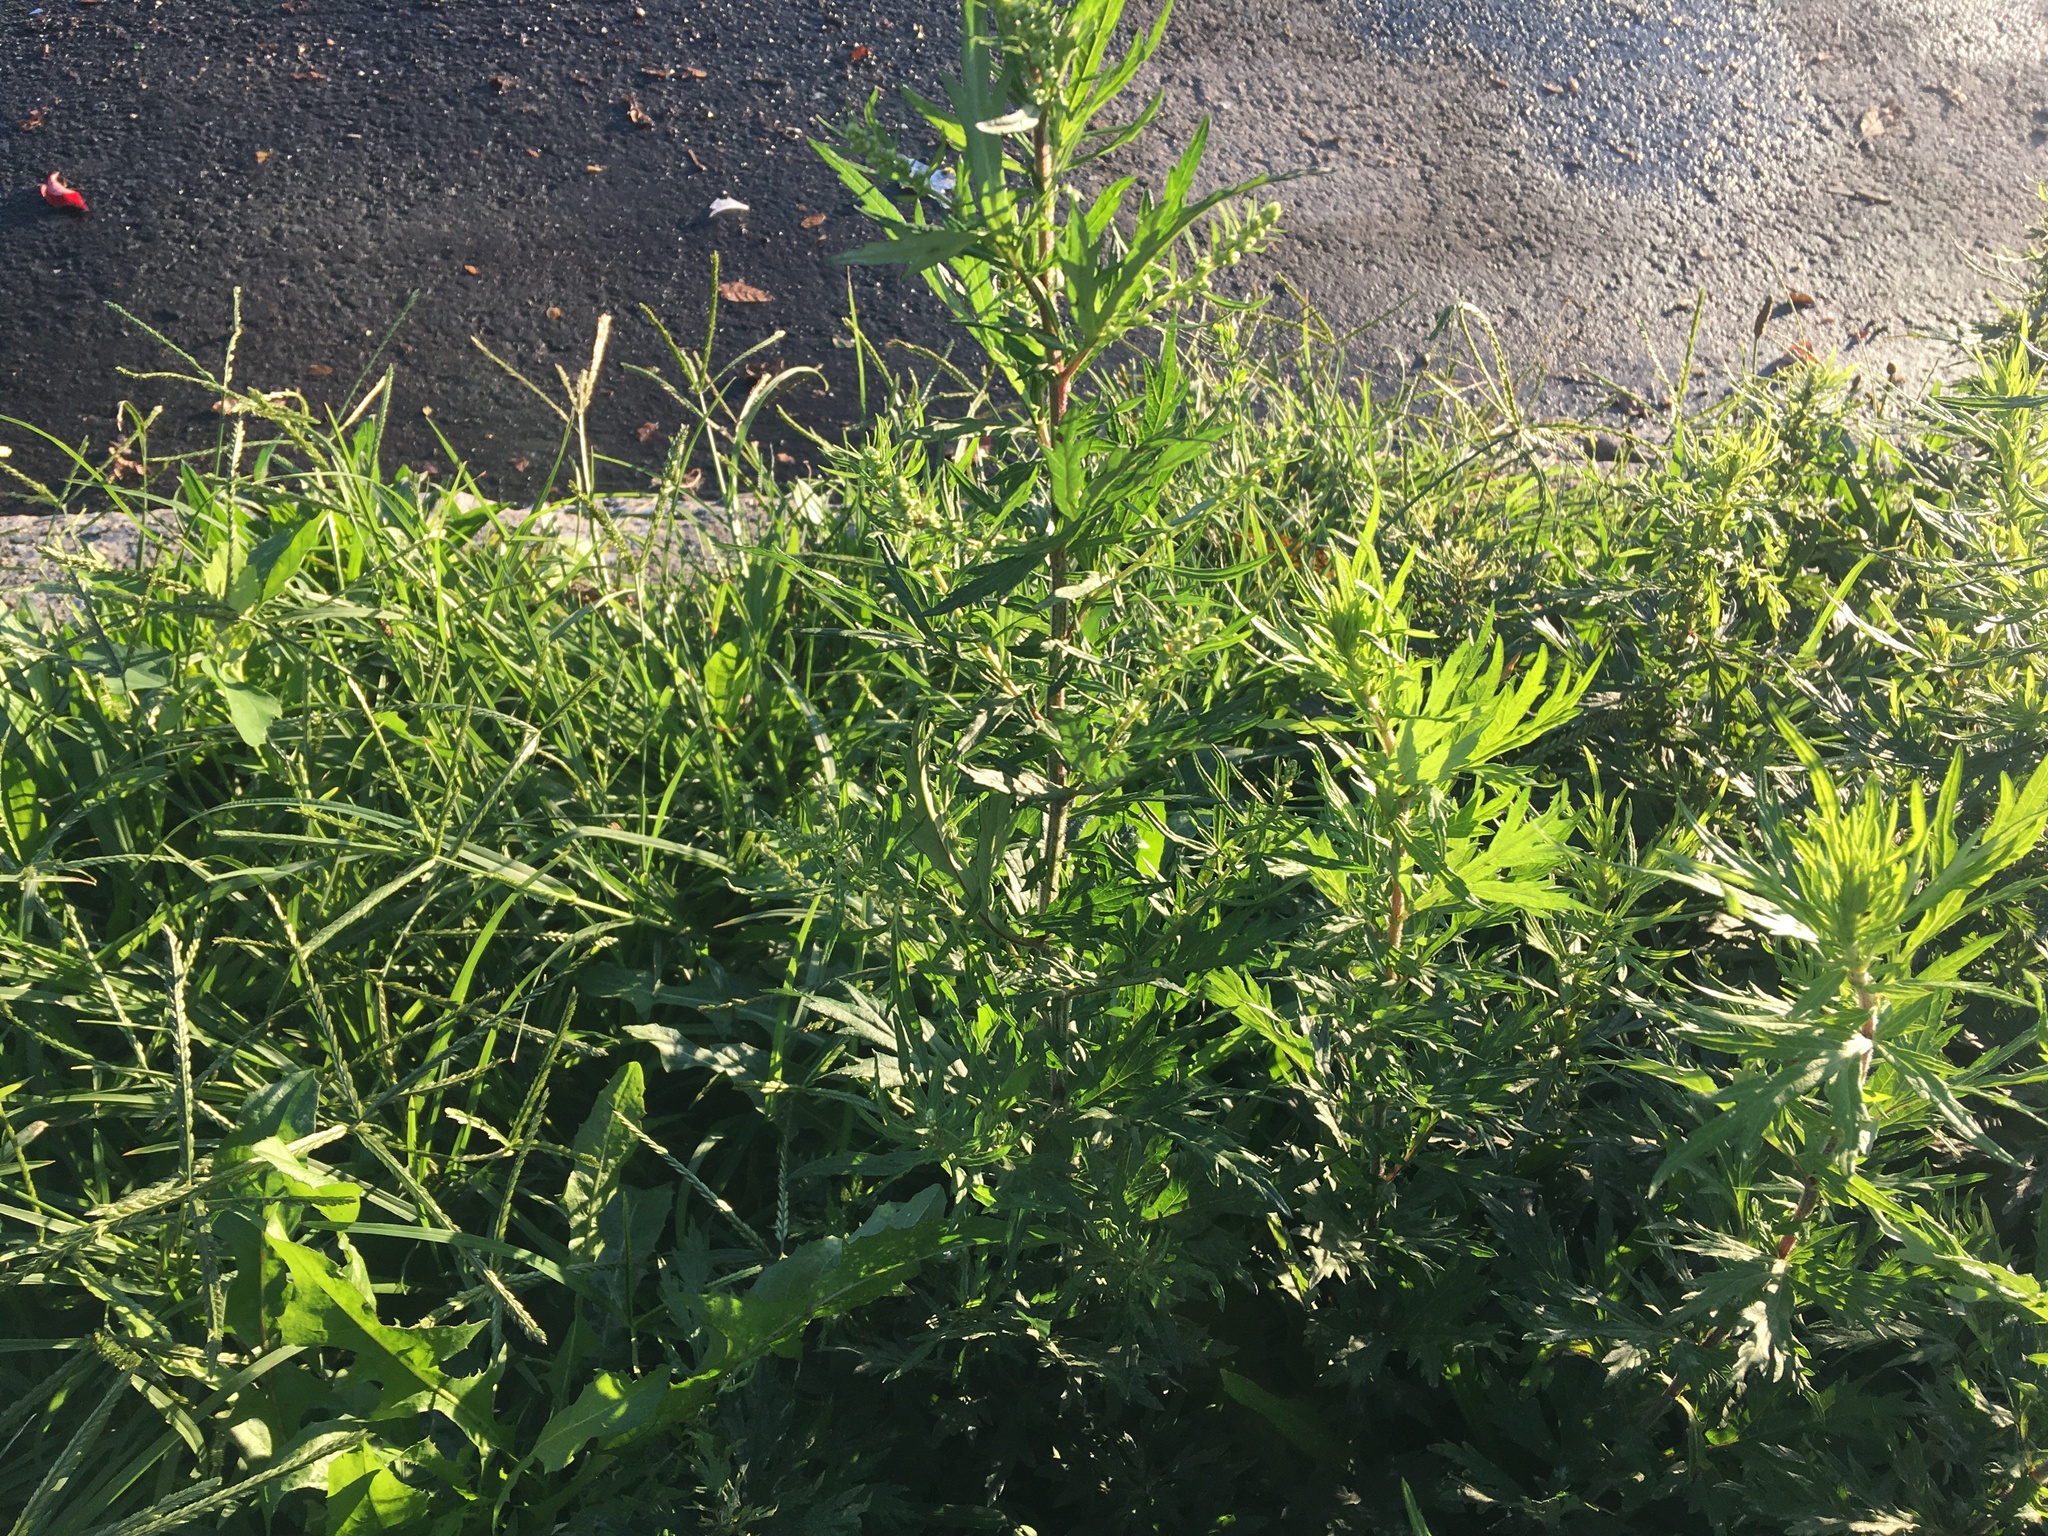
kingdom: Plantae
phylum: Tracheophyta
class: Magnoliopsida
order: Asterales
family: Asteraceae
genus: Artemisia
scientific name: Artemisia vulgaris
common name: Mugwort
